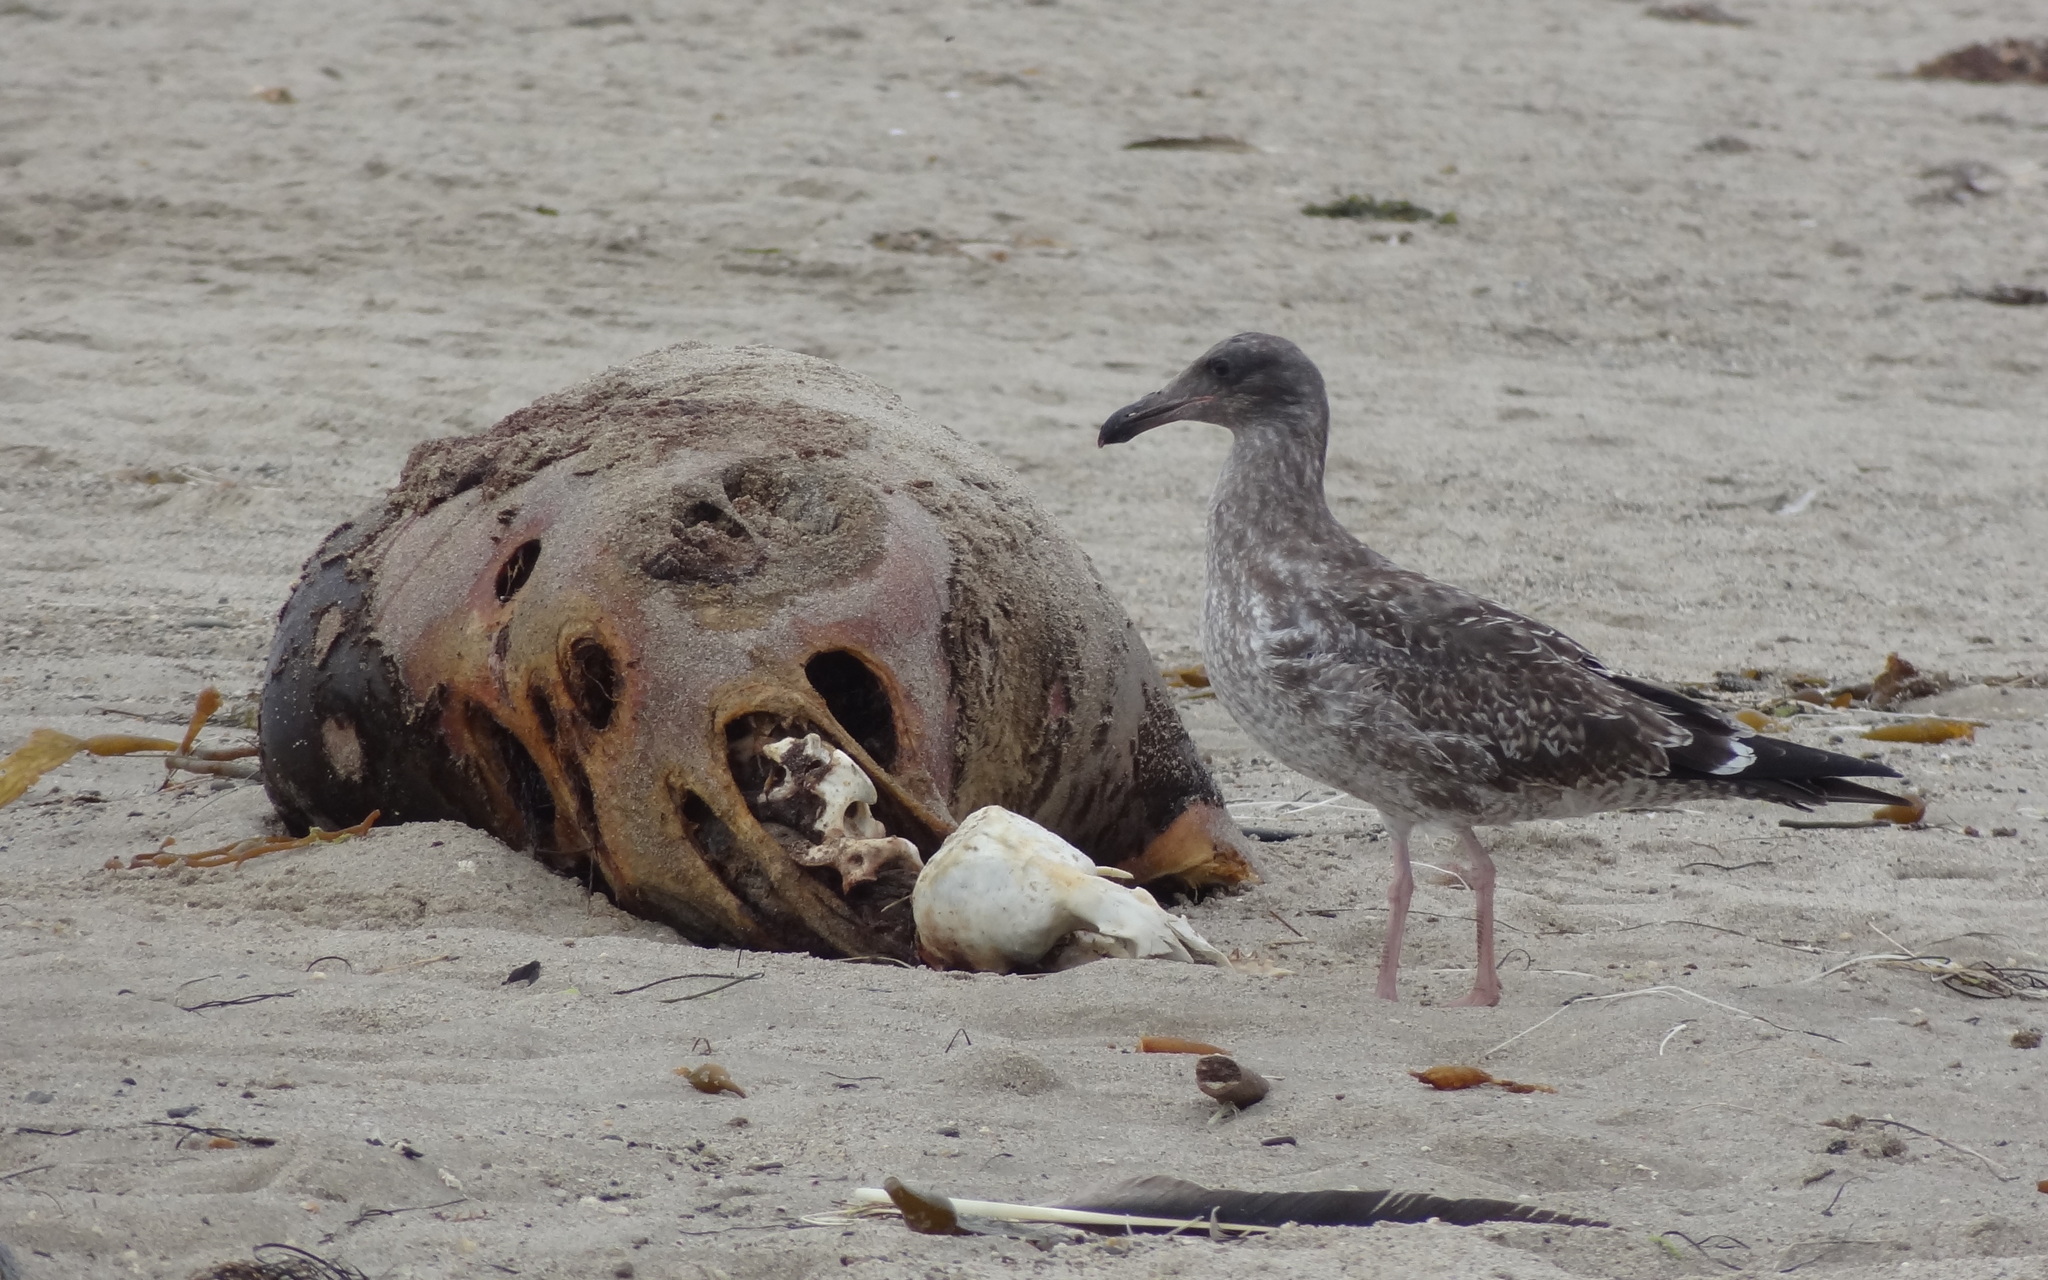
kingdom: Animalia
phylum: Chordata
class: Aves
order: Charadriiformes
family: Laridae
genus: Larus
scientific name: Larus occidentalis
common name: Western gull
